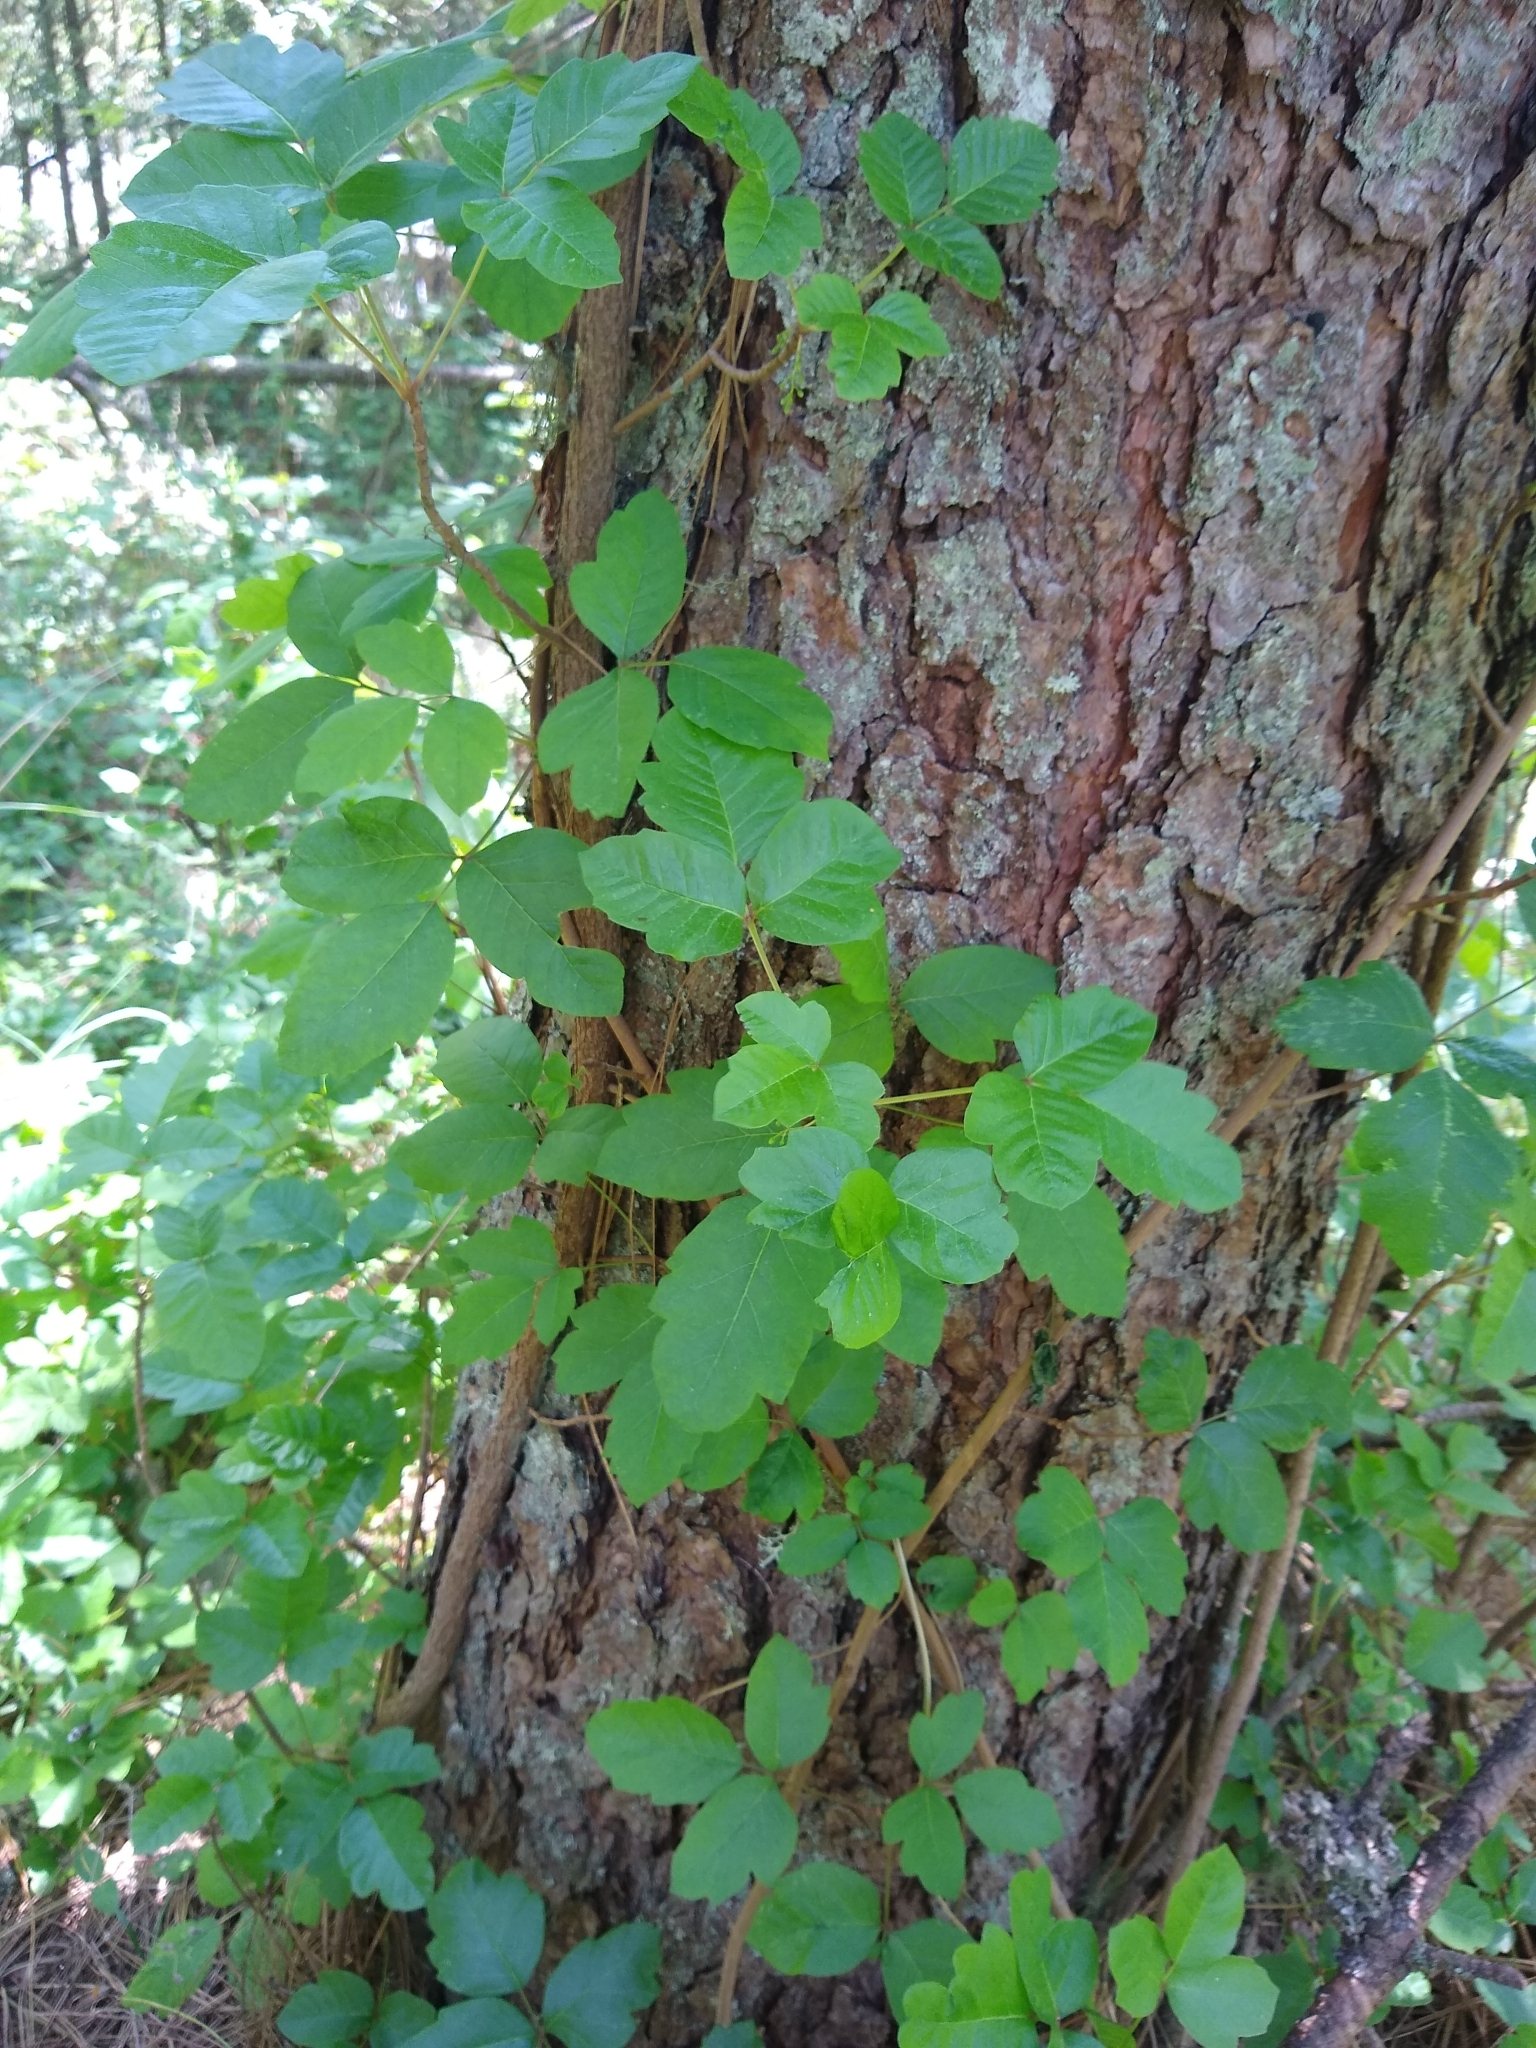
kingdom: Plantae
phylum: Tracheophyta
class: Magnoliopsida
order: Sapindales
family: Anacardiaceae
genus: Toxicodendron
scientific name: Toxicodendron diversilobum
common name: Pacific poison-oak
